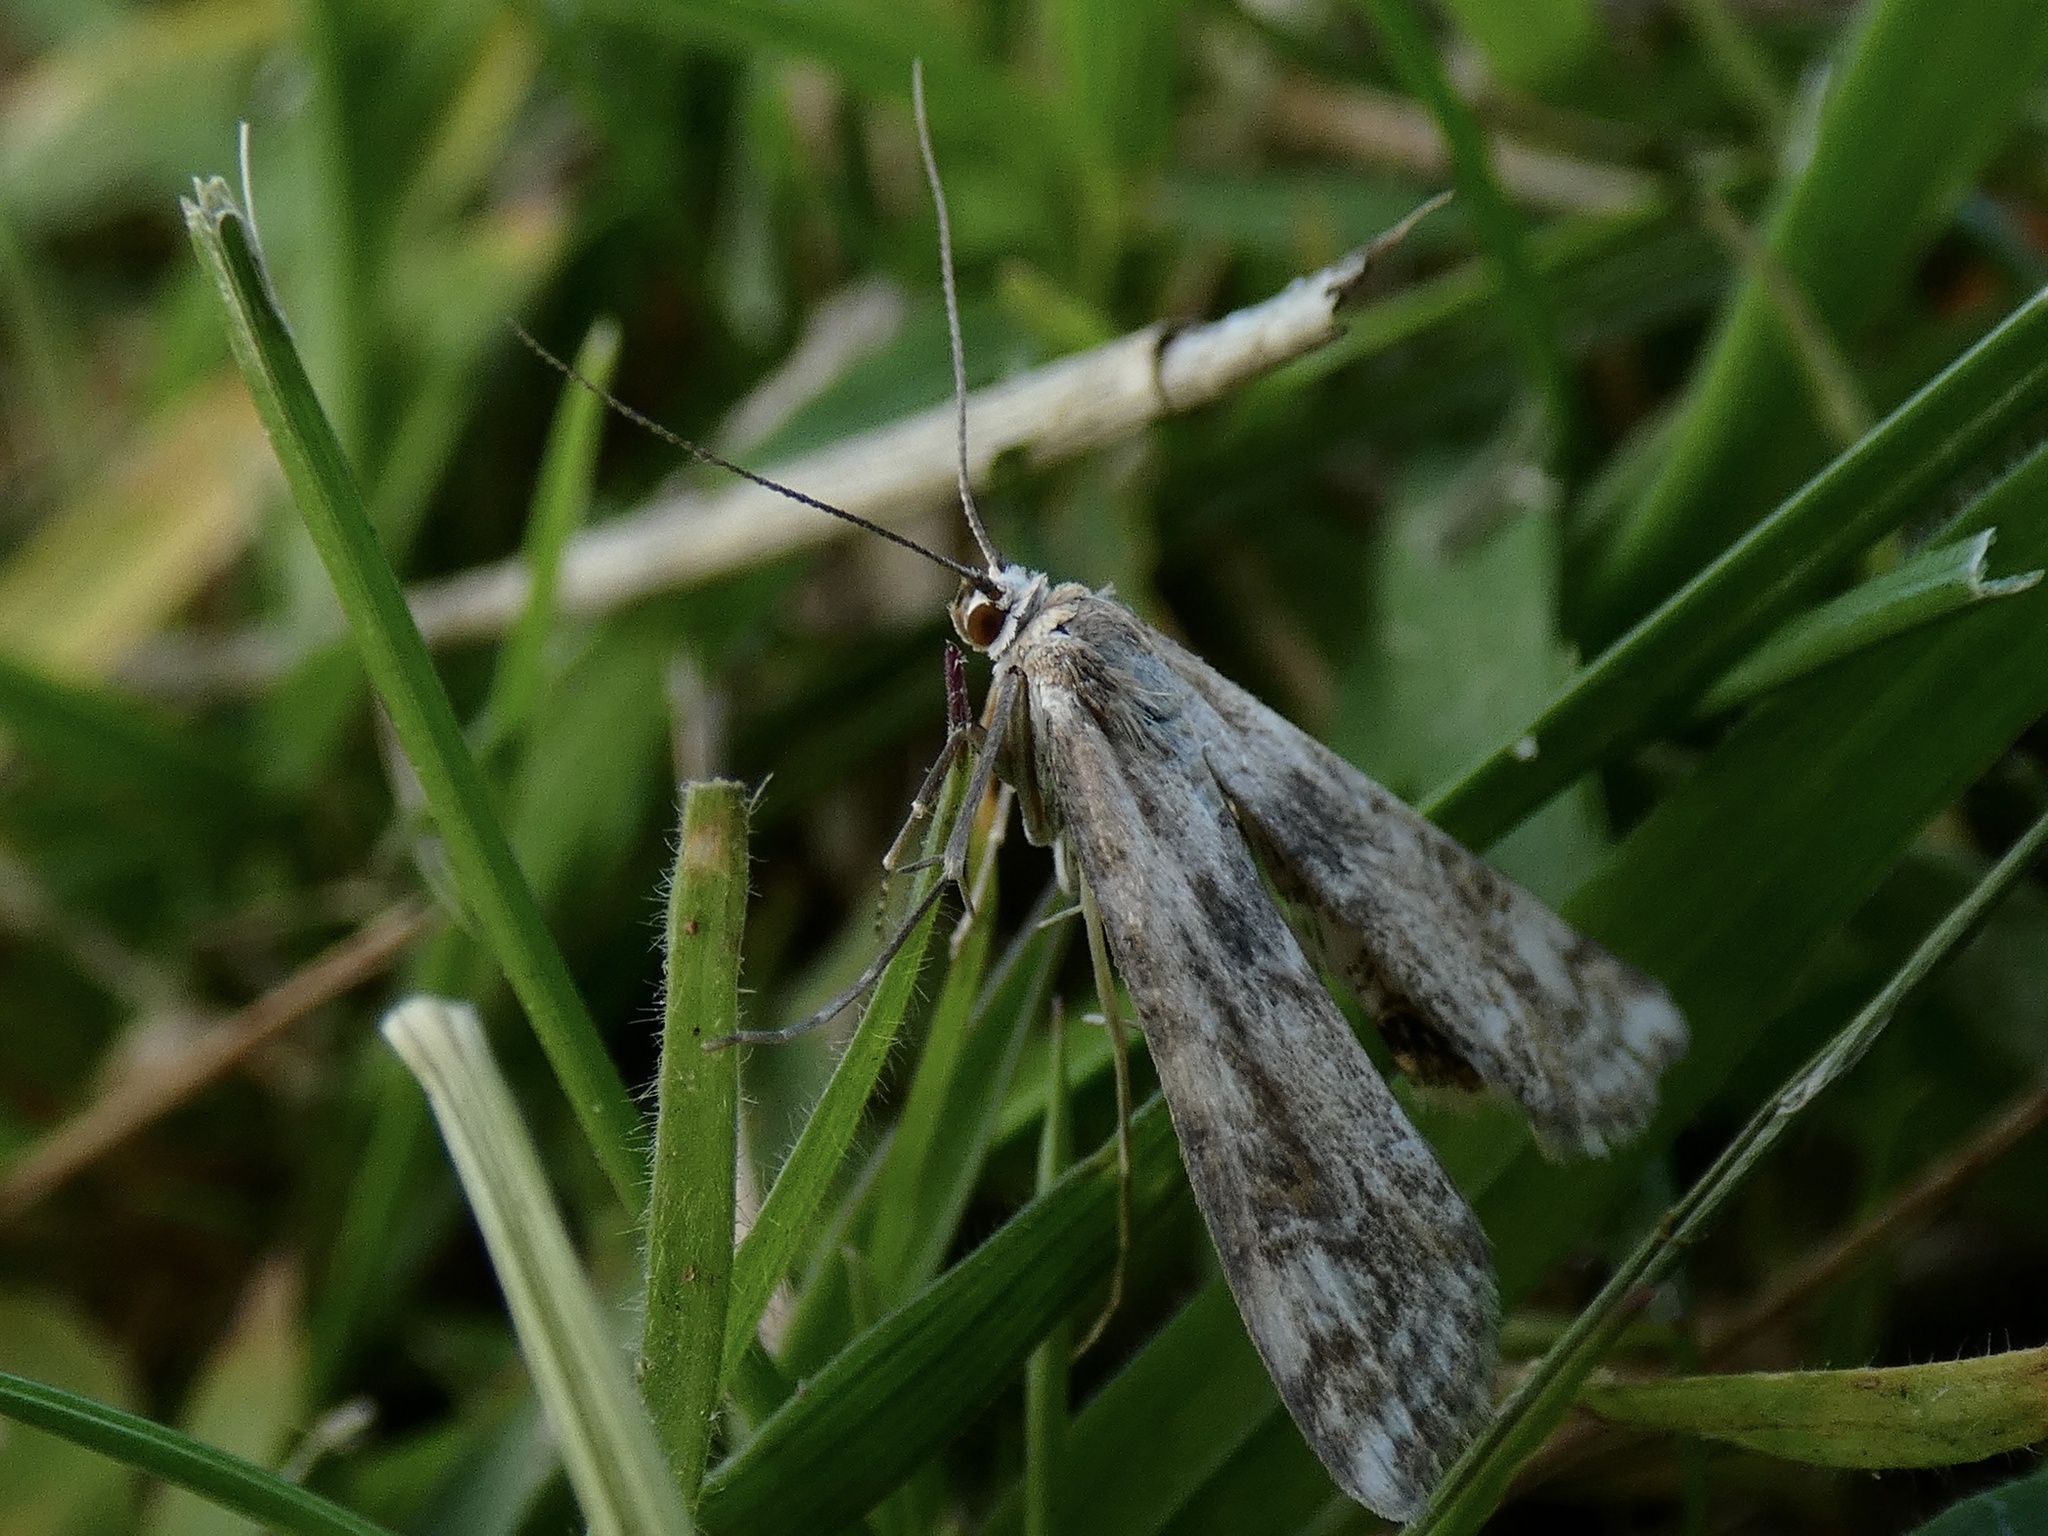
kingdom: Animalia
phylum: Arthropoda
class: Insecta
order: Lepidoptera
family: Crambidae
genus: Cataclysta
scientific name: Cataclysta lemnata
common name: Small china-mark
